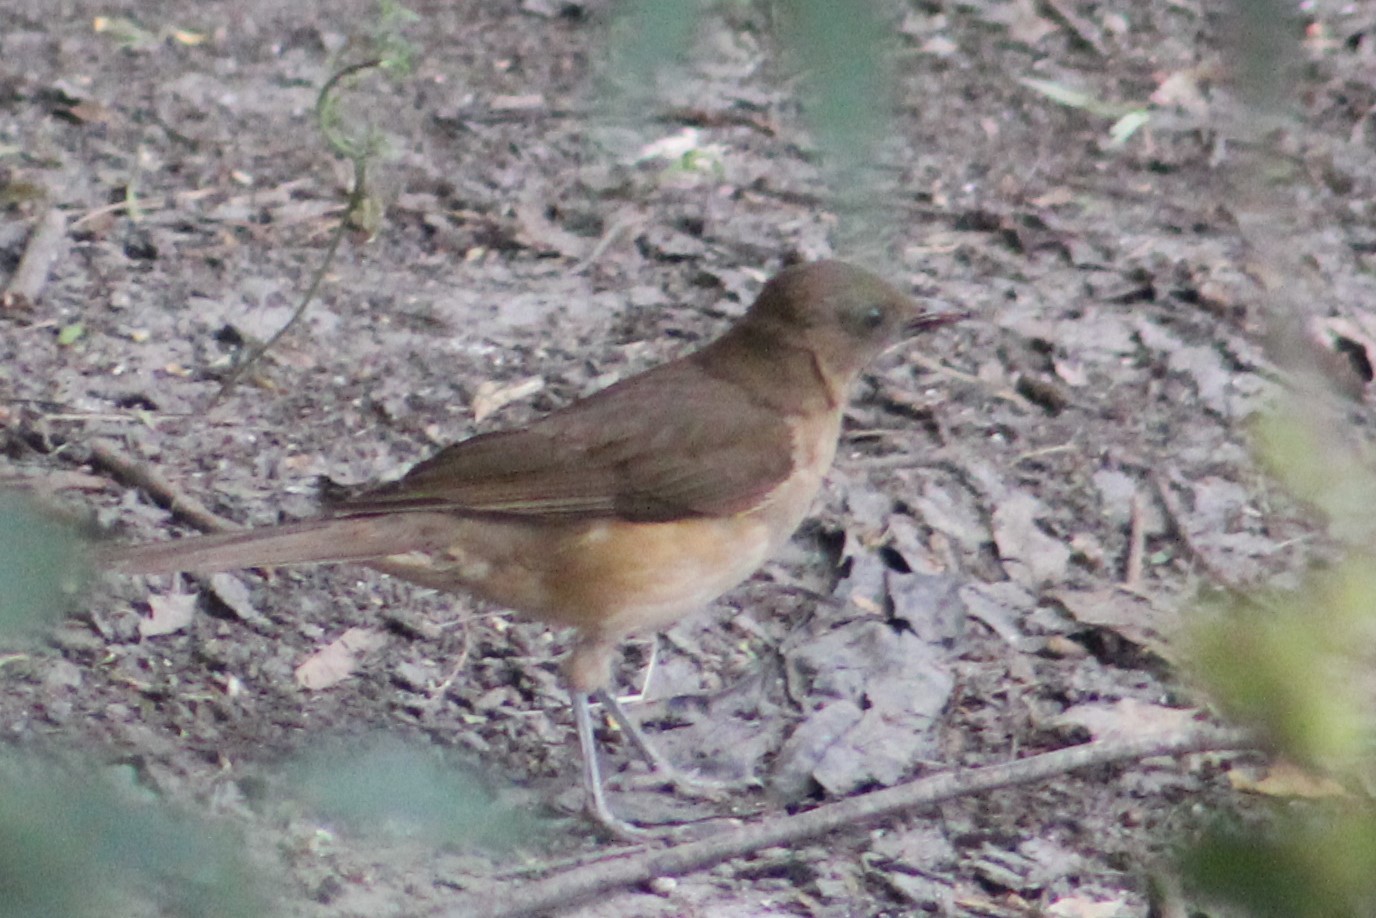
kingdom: Animalia
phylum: Chordata
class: Aves
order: Passeriformes
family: Turdidae
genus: Turdus
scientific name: Turdus grayi
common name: Clay-colored thrush
